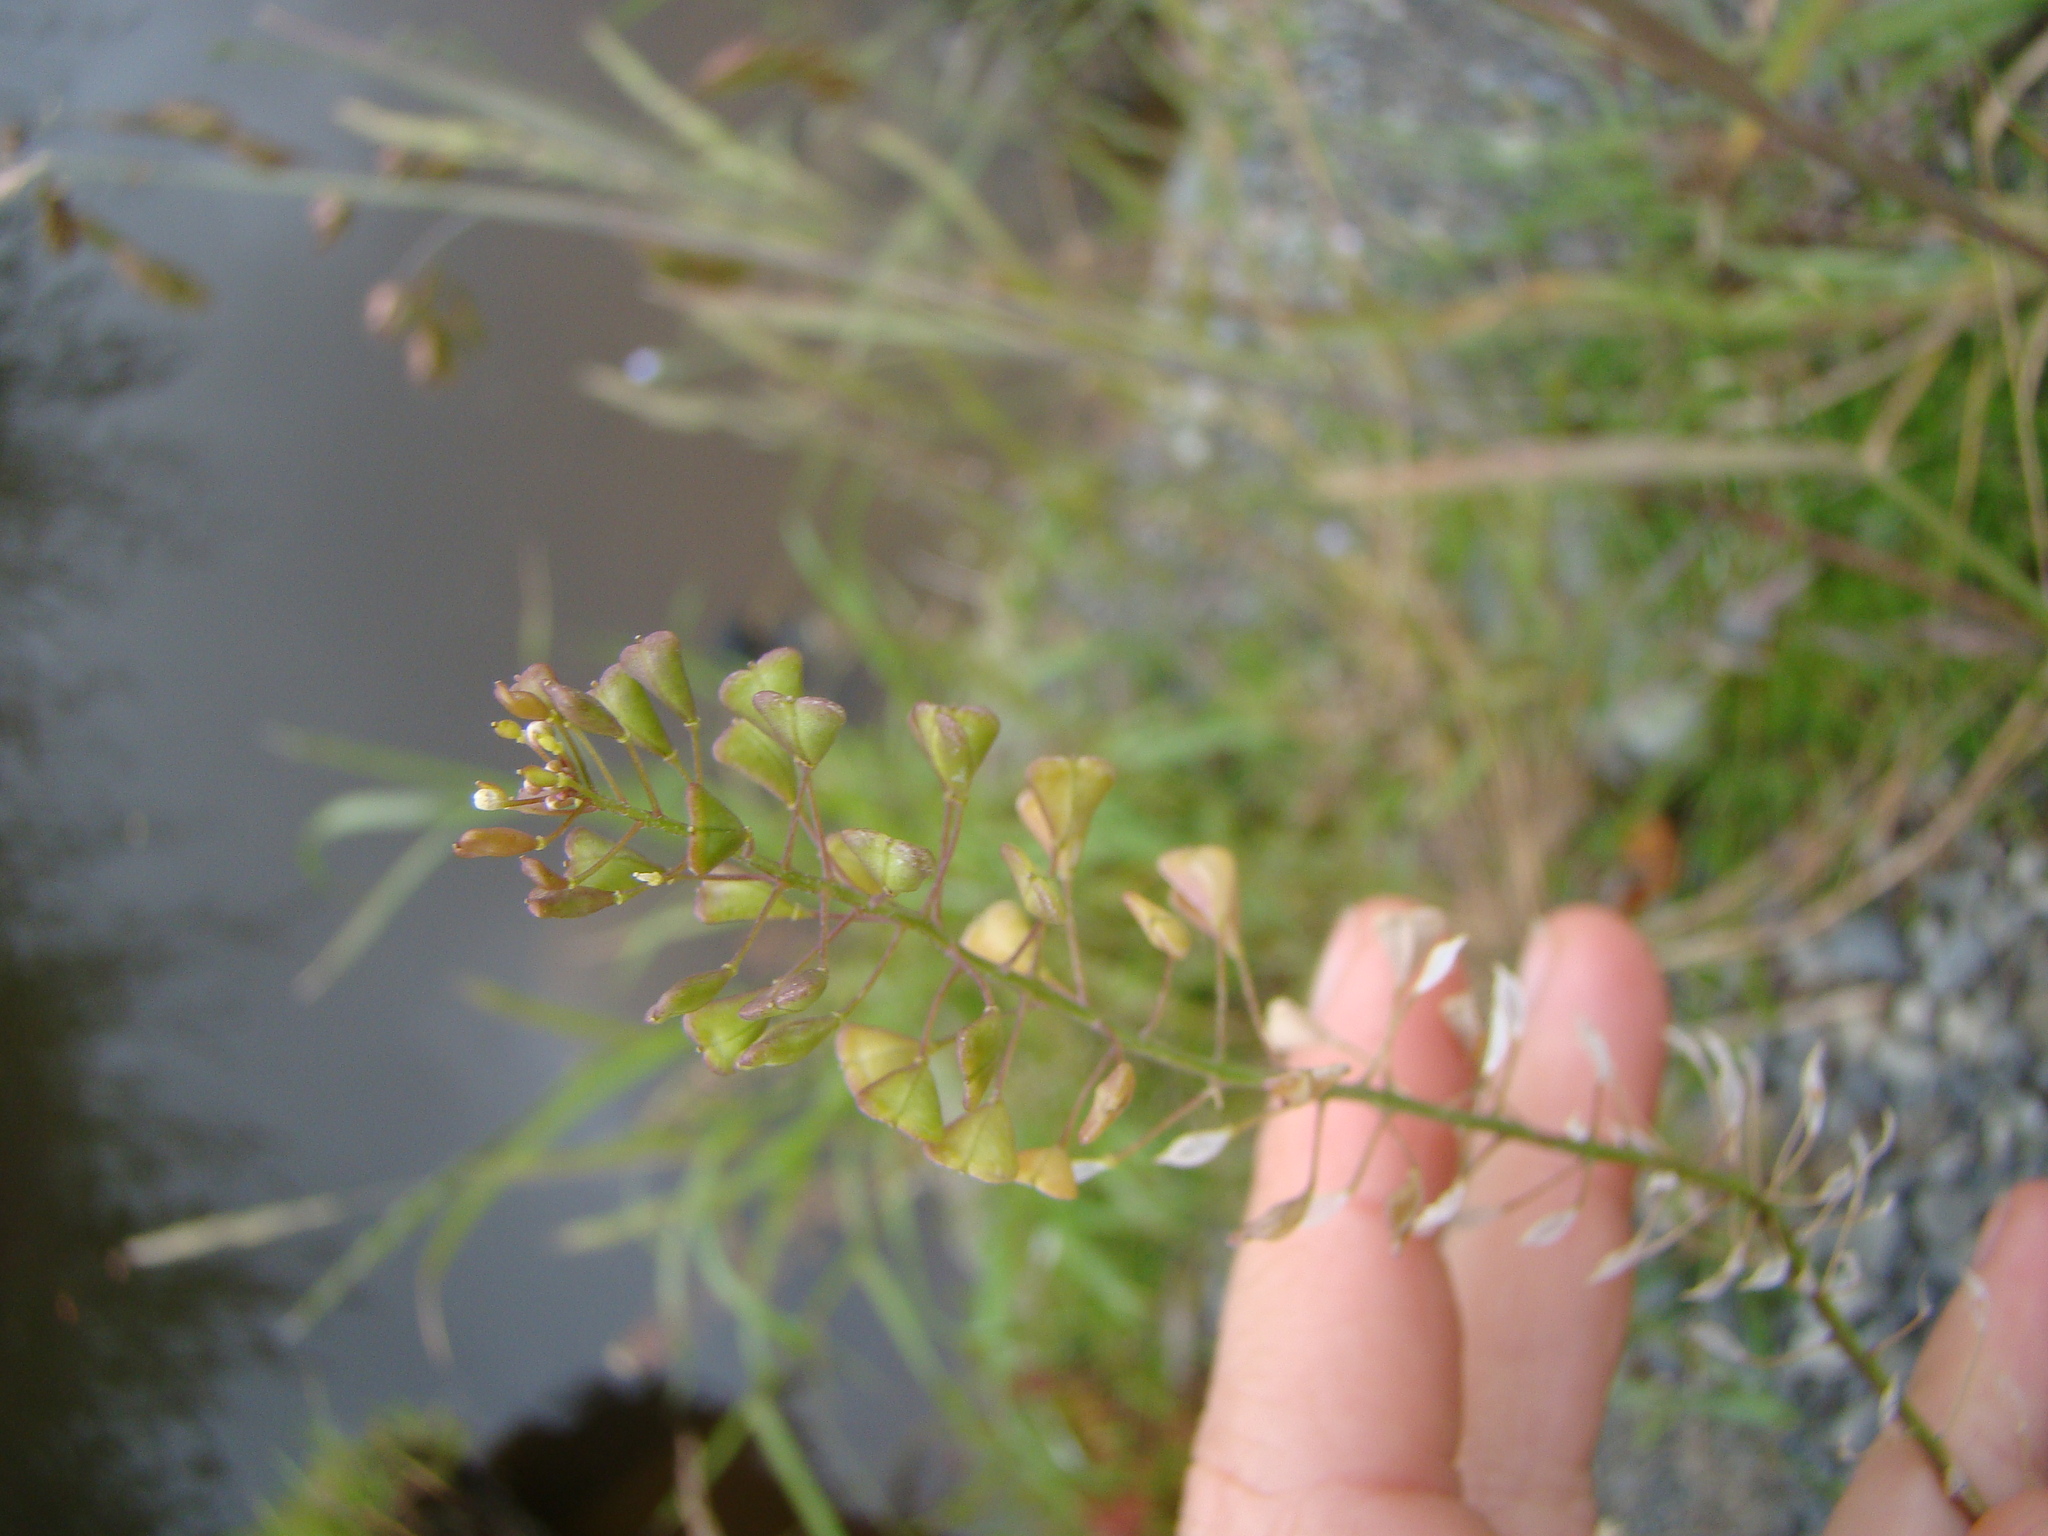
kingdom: Plantae
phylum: Tracheophyta
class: Magnoliopsida
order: Brassicales
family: Brassicaceae
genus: Capsella
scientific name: Capsella bursa-pastoris
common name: Shepherd's purse
